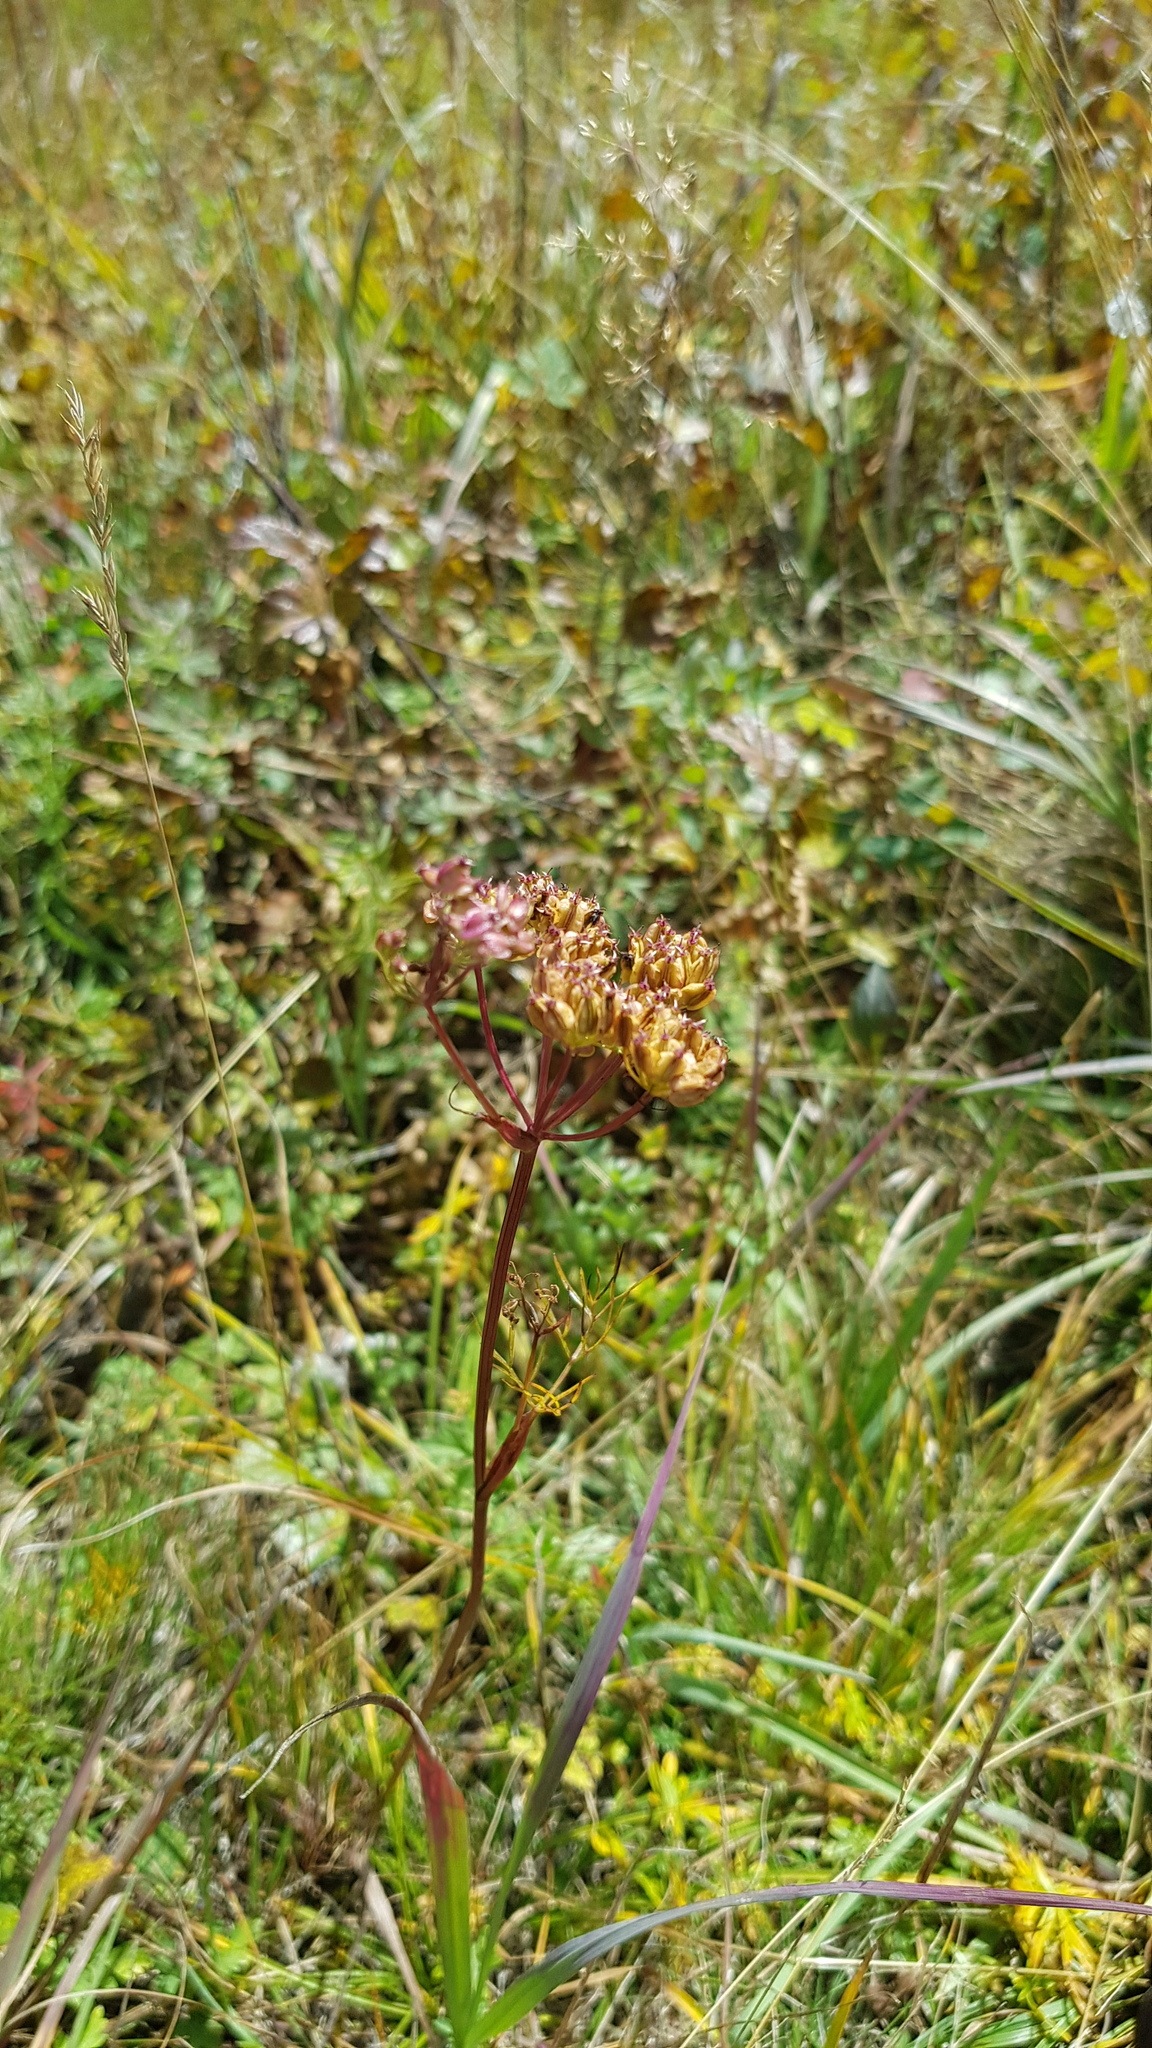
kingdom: Plantae
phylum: Tracheophyta
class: Magnoliopsida
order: Apiales
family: Apiaceae
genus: Ostericum
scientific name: Ostericum tenuifolium
